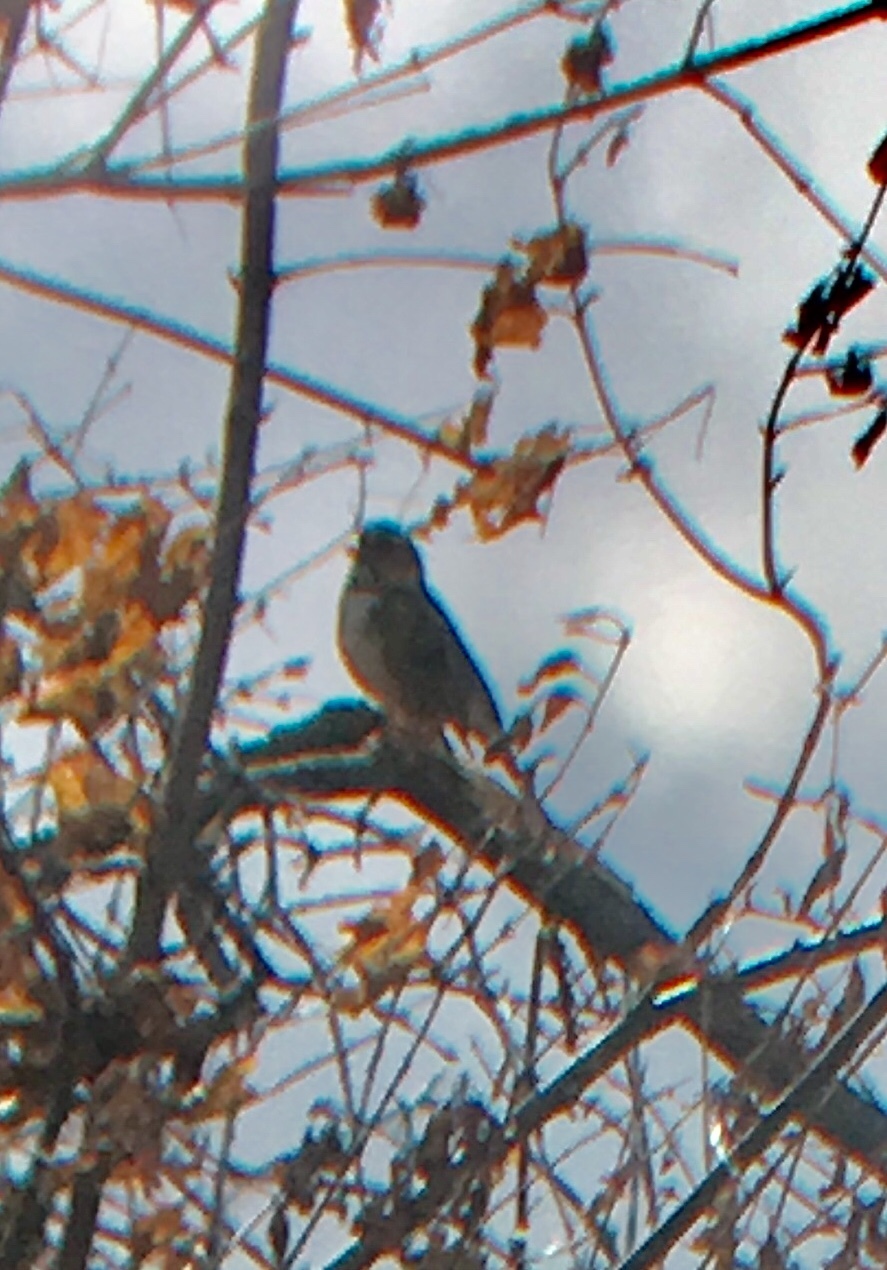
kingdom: Animalia
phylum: Chordata
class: Aves
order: Passeriformes
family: Passerellidae
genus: Zonotrichia
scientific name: Zonotrichia querula
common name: Harris's sparrow
